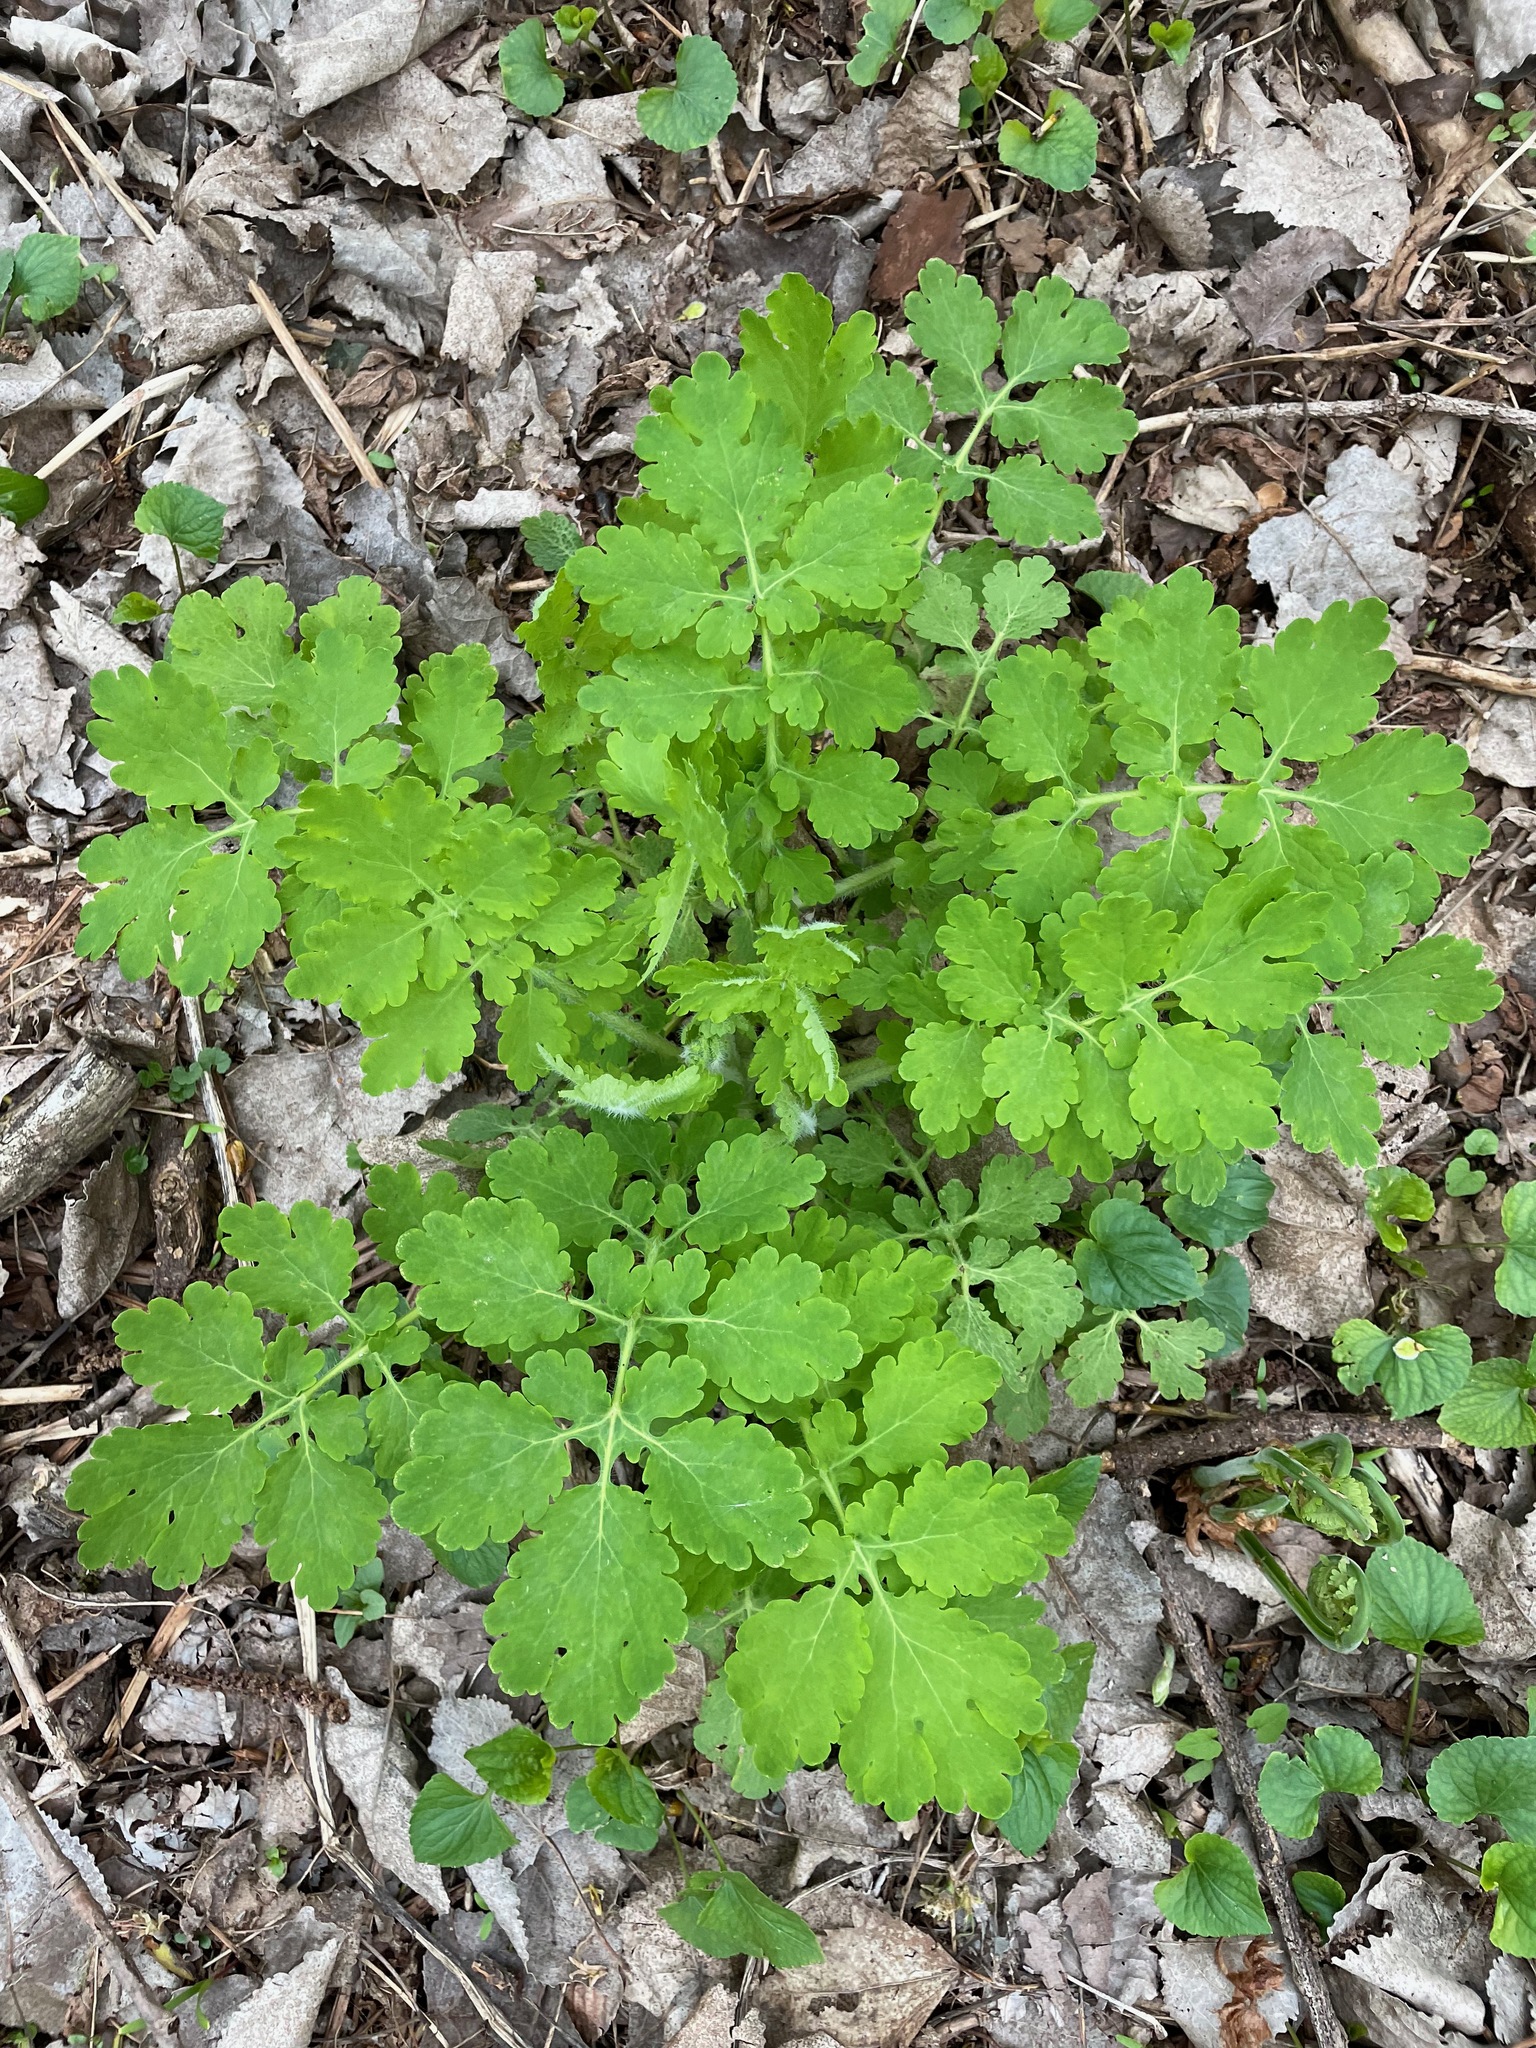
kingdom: Plantae
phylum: Tracheophyta
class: Magnoliopsida
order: Ranunculales
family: Papaveraceae
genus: Chelidonium
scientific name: Chelidonium majus
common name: Greater celandine
